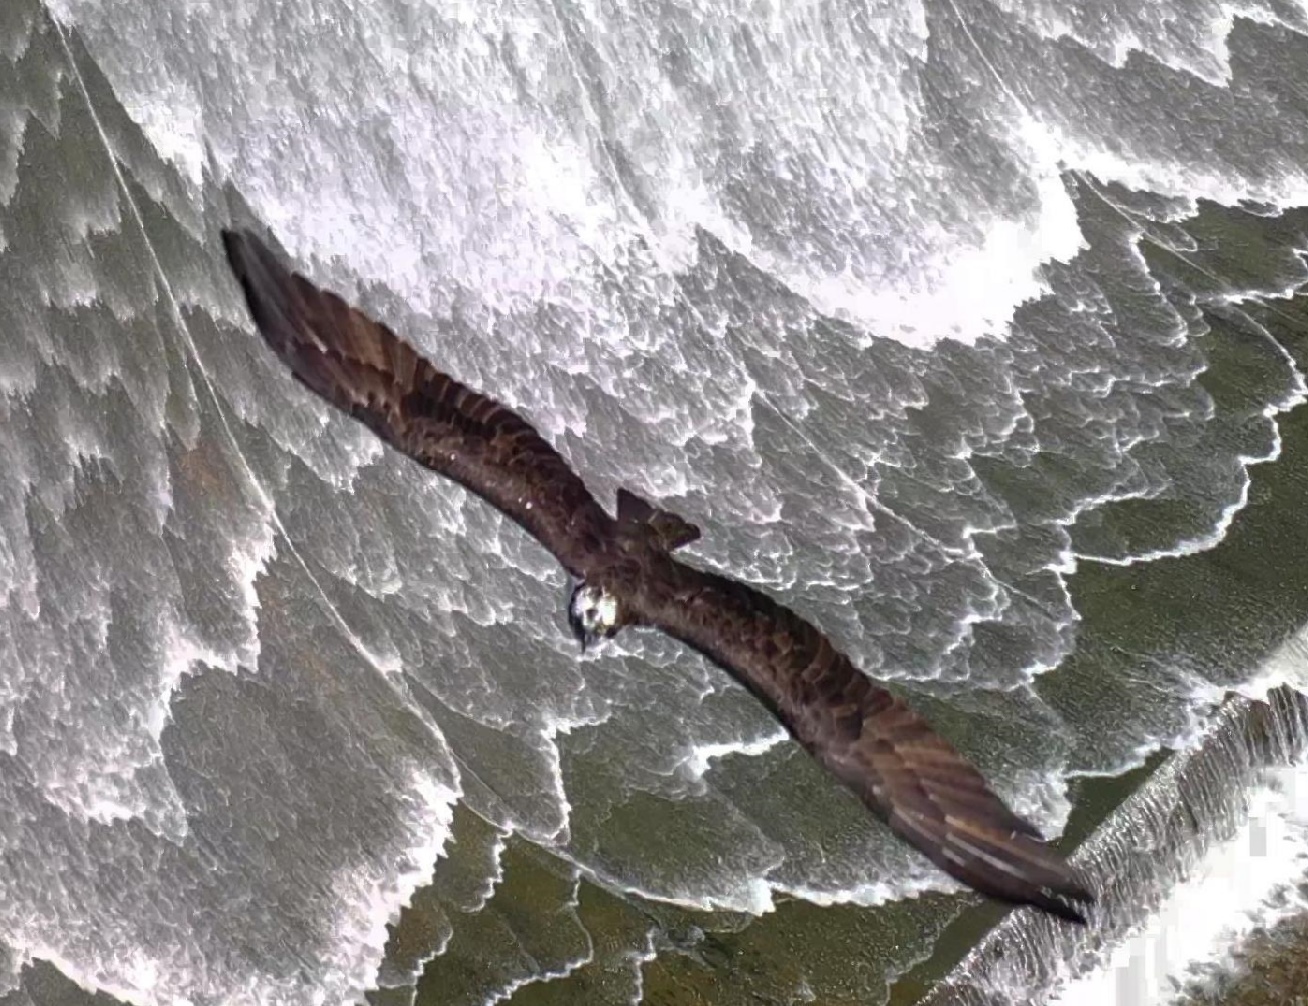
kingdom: Animalia
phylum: Chordata
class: Aves
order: Accipitriformes
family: Pandionidae
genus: Pandion
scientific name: Pandion haliaetus
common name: Osprey
